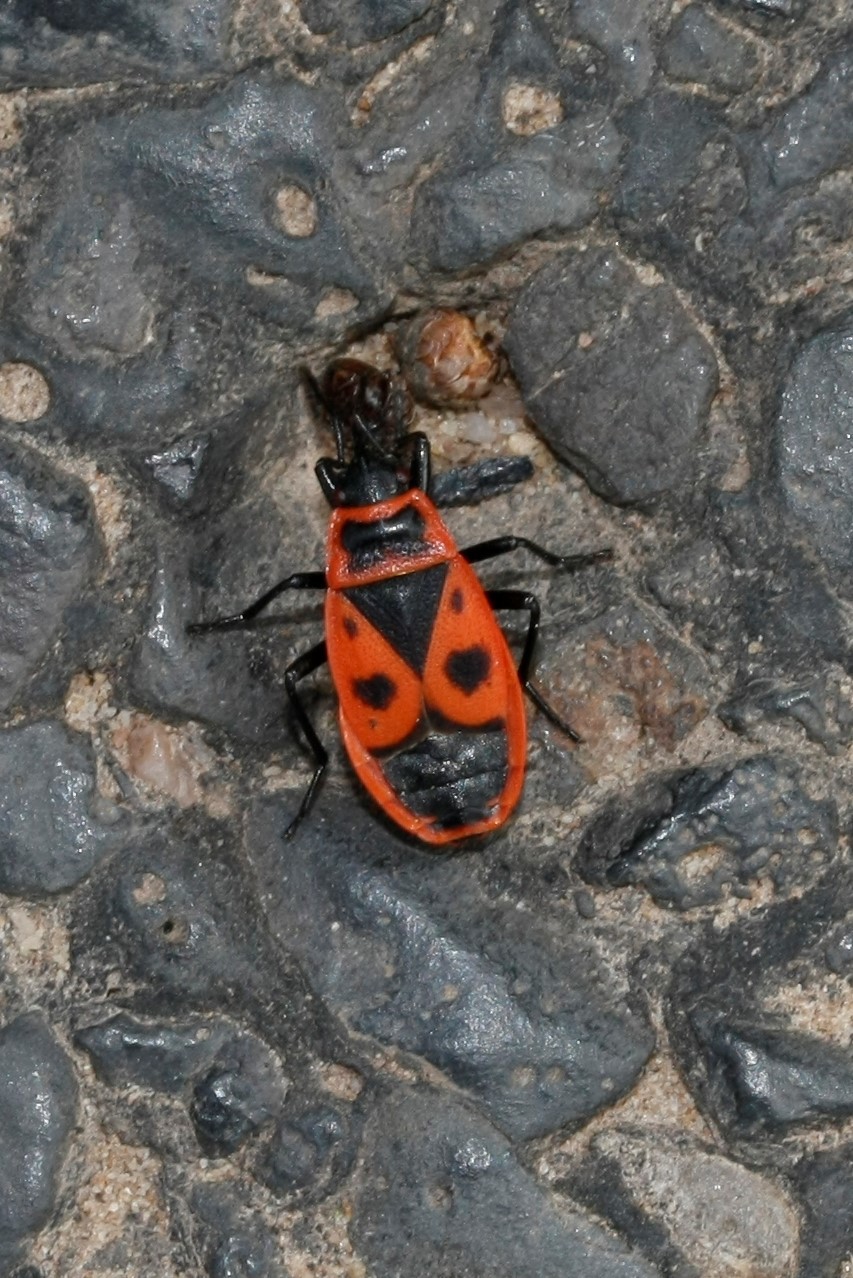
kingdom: Animalia
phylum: Arthropoda
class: Insecta
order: Hemiptera
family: Pyrrhocoridae
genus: Pyrrhocoris
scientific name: Pyrrhocoris apterus
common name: Firebug
